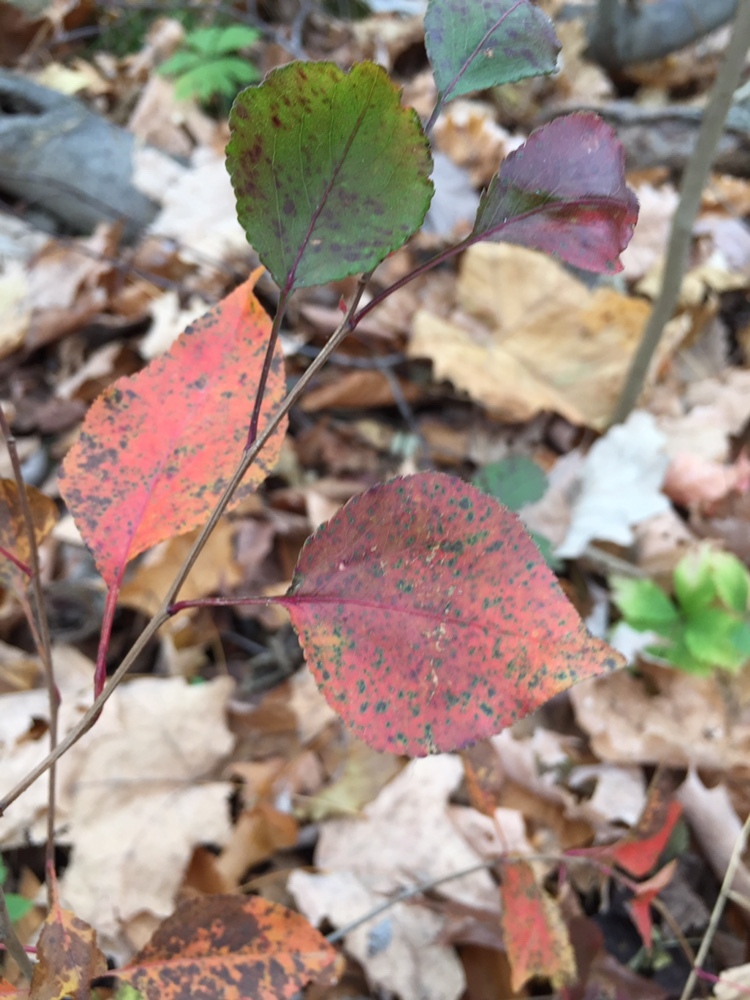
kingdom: Plantae
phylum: Tracheophyta
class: Magnoliopsida
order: Rosales
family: Rosaceae
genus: Pyrus
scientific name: Pyrus calleryana
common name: Callery pear
